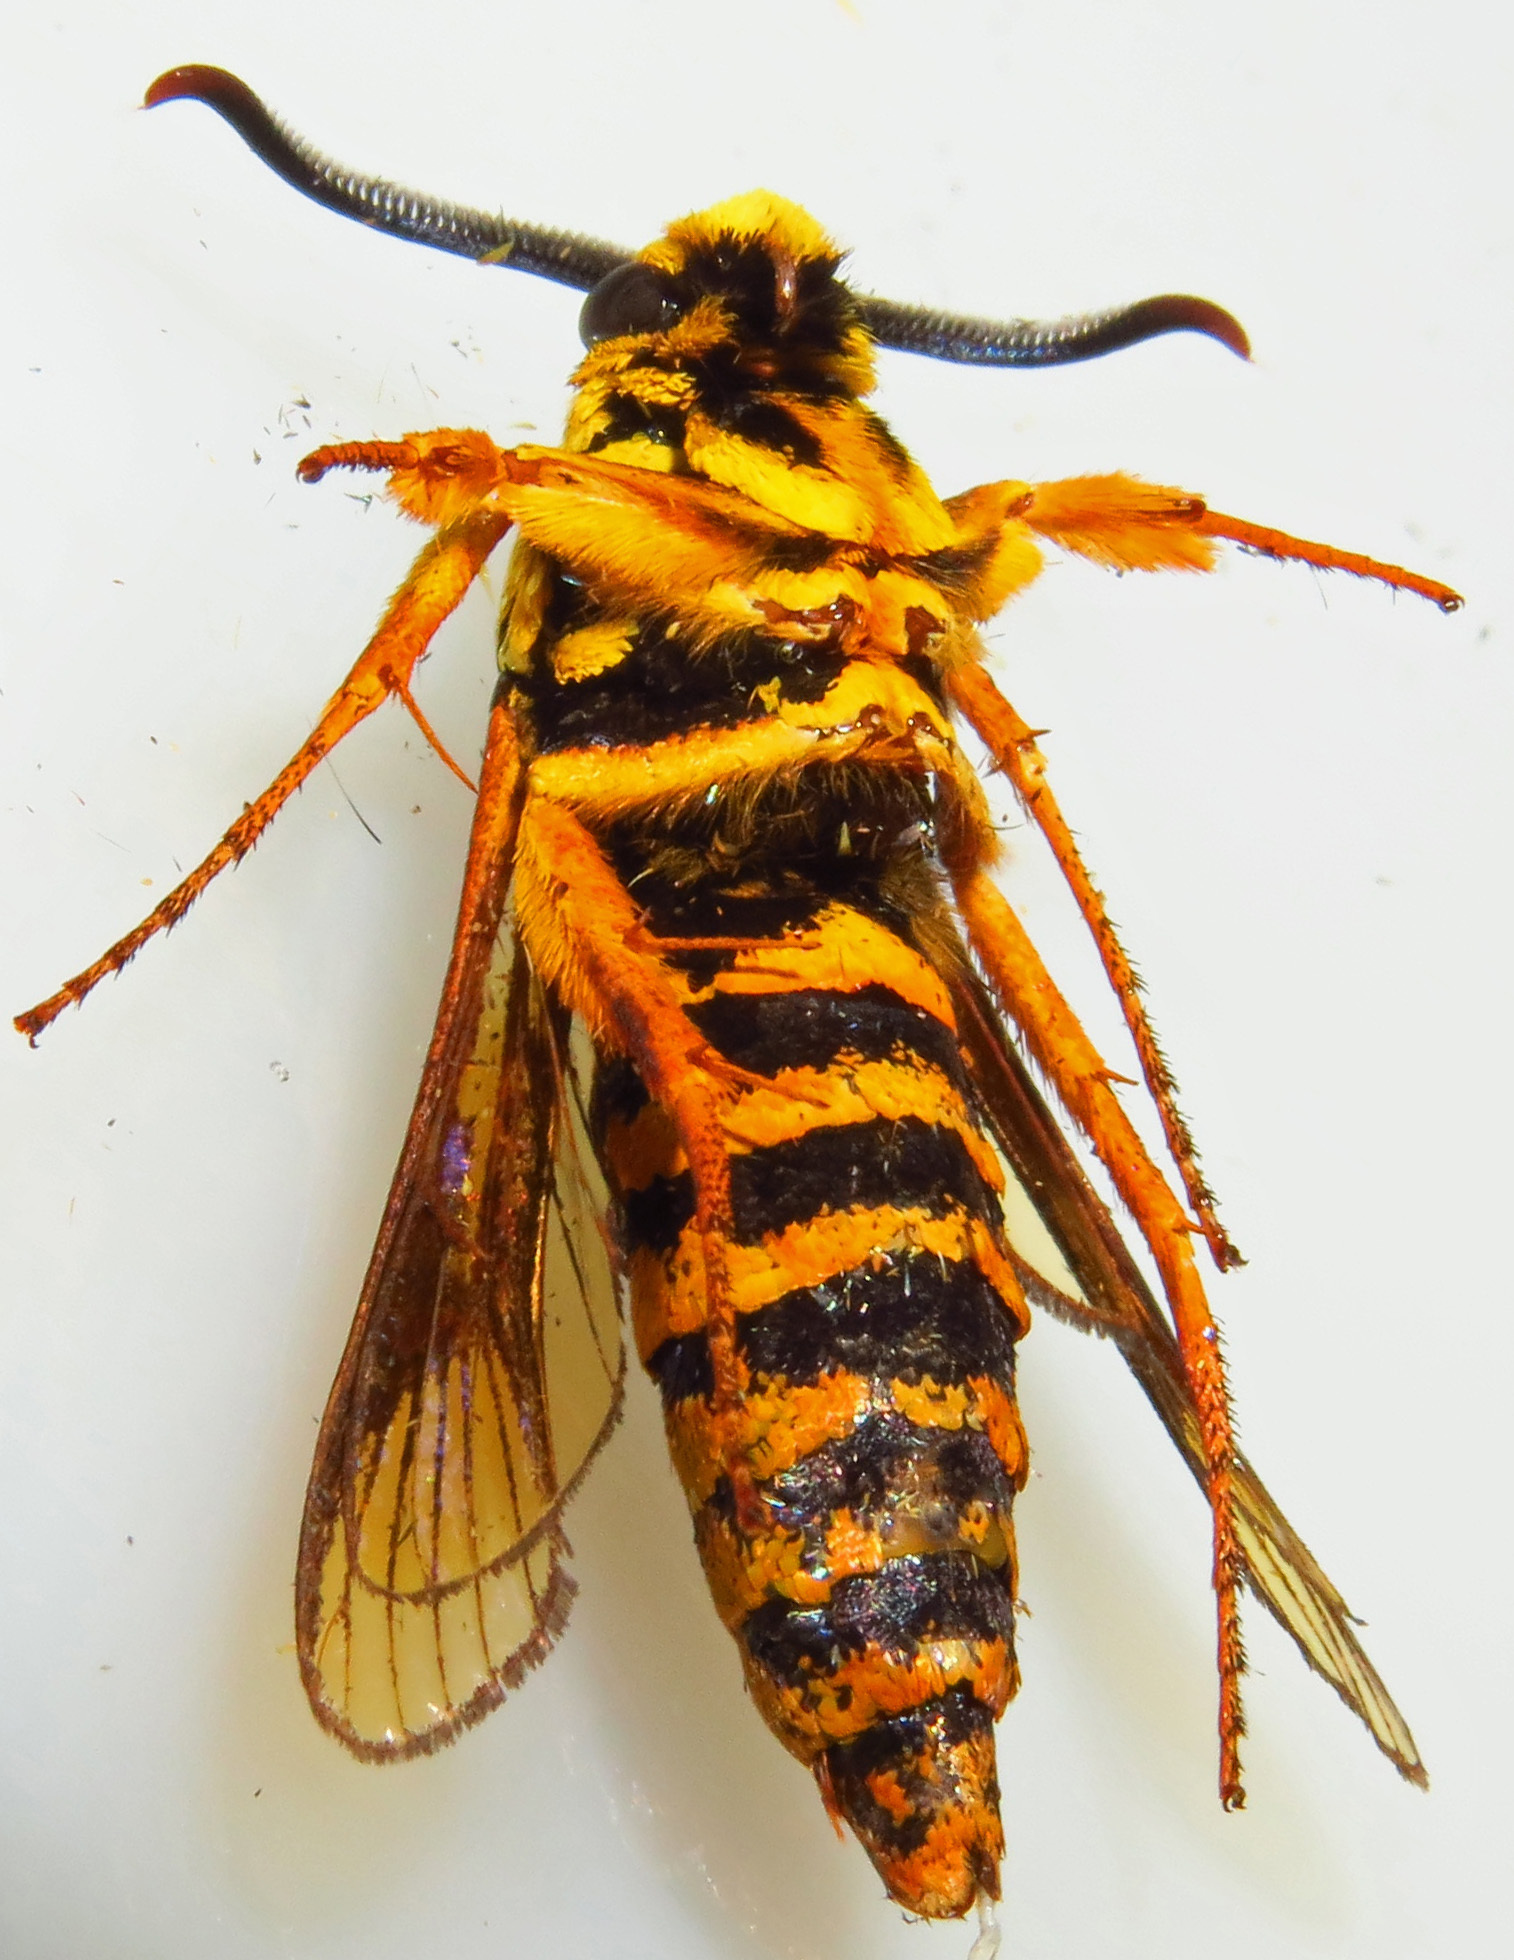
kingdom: Animalia
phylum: Arthropoda
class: Insecta
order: Lepidoptera
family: Sesiidae
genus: Paranthrene
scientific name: Paranthrene simulans
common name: Hornet clearwing moth
